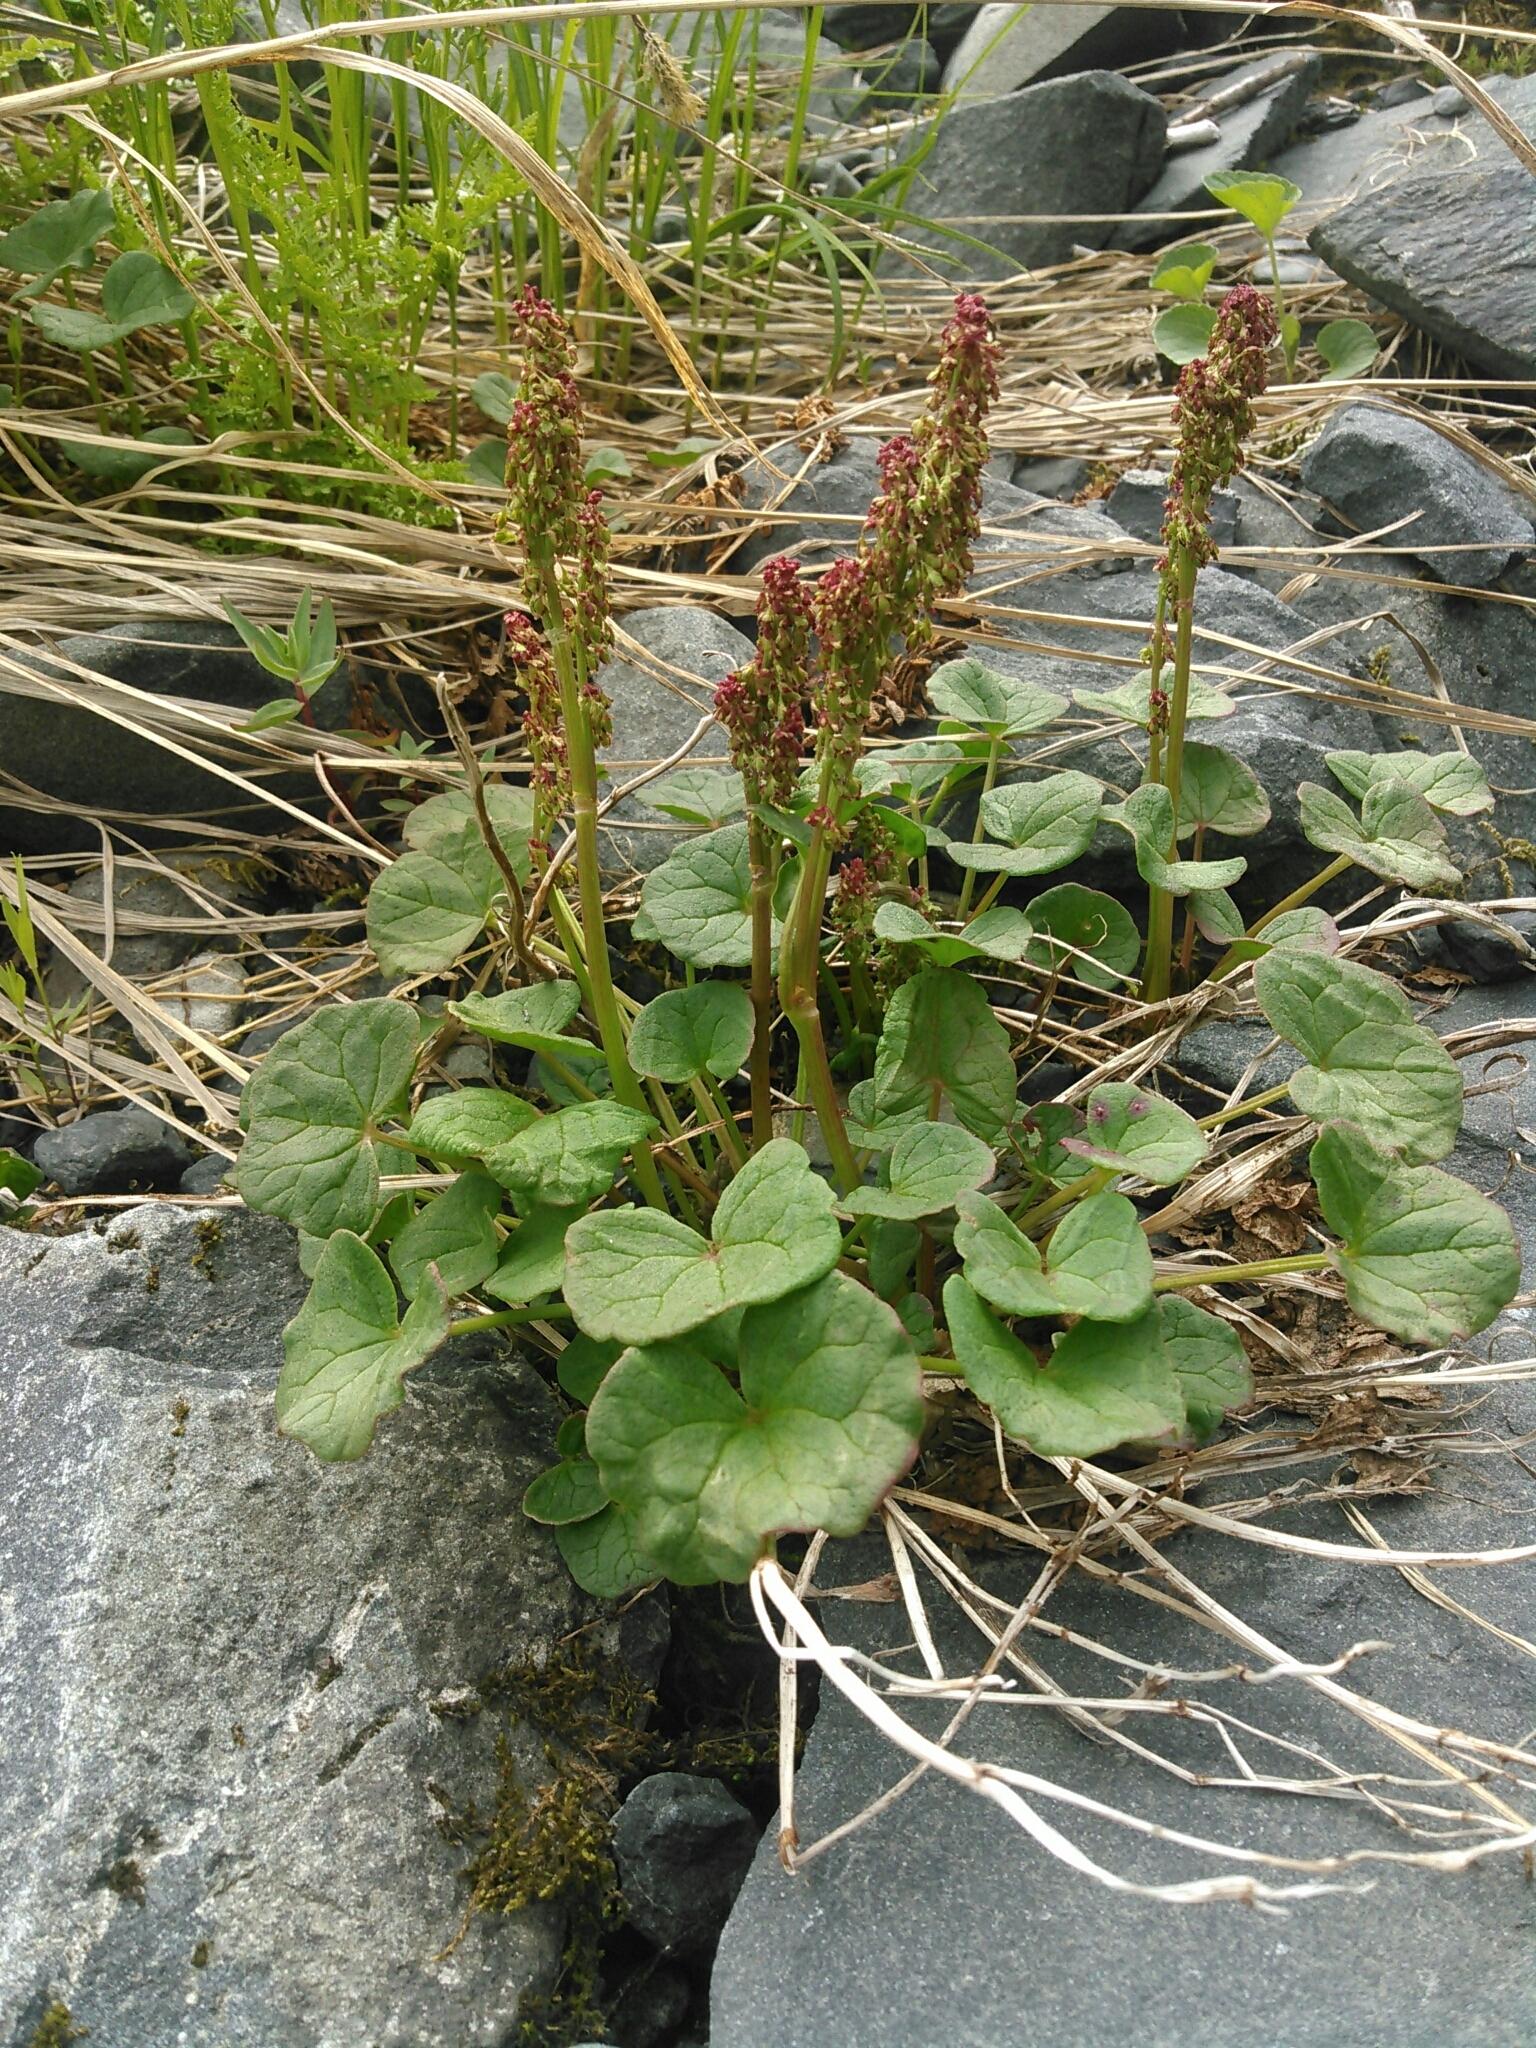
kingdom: Plantae
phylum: Tracheophyta
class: Magnoliopsida
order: Caryophyllales
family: Polygonaceae
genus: Oxyria
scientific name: Oxyria digyna
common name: Alpine mountain-sorrel
